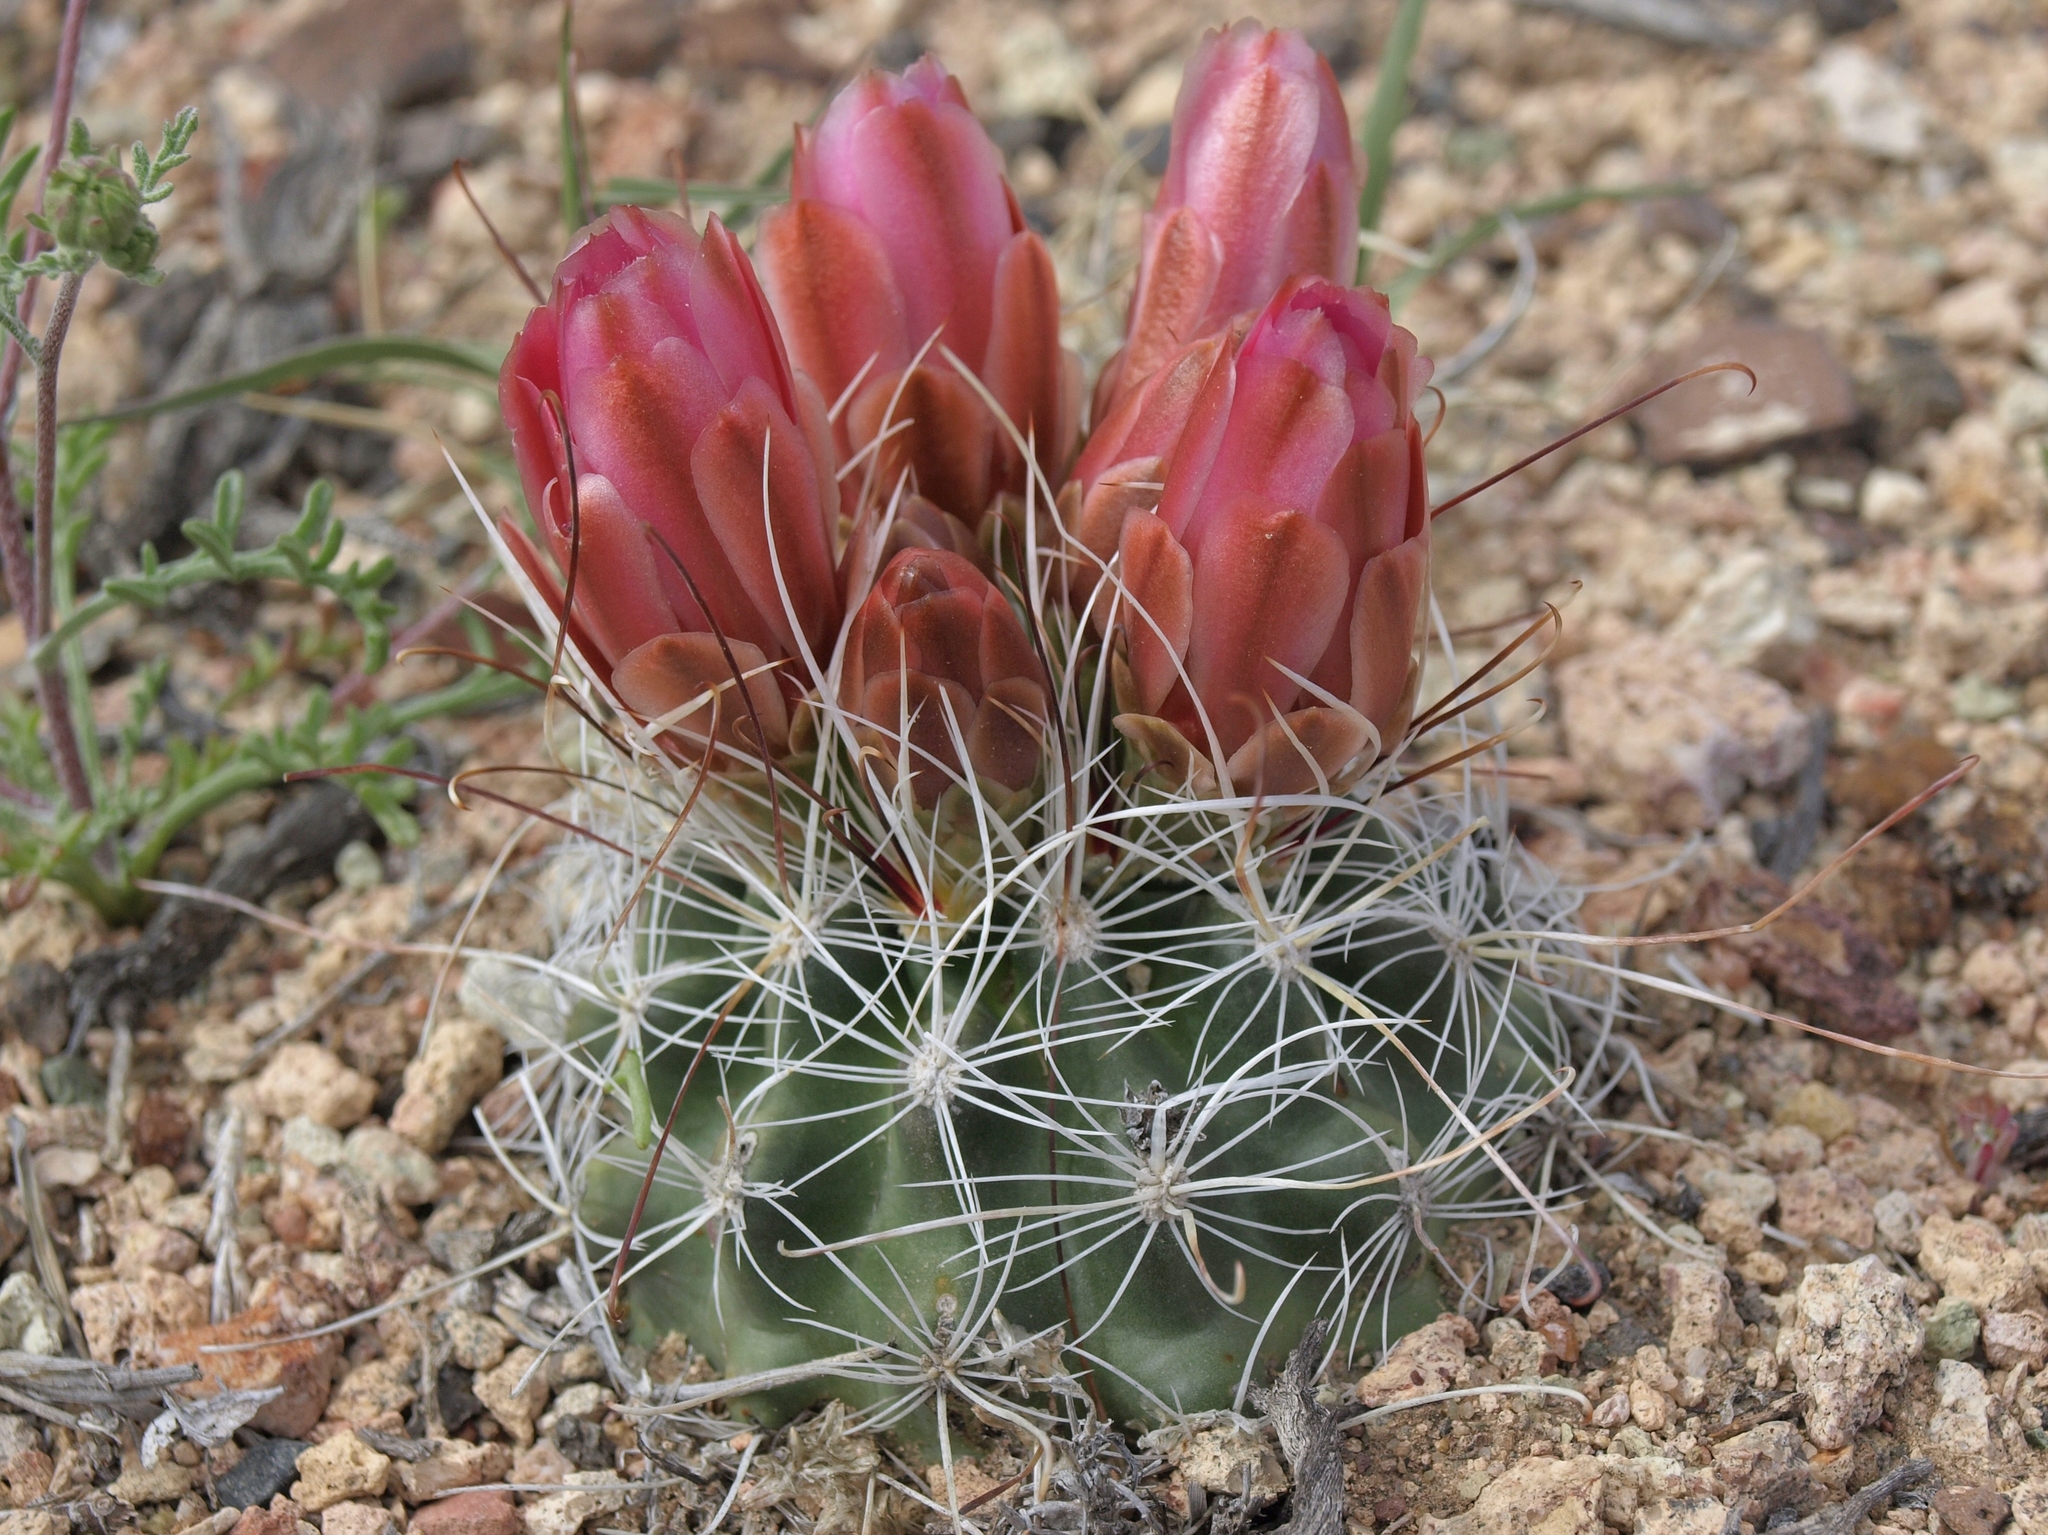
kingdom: Plantae
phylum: Tracheophyta
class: Magnoliopsida
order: Caryophyllales
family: Cactaceae
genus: Sclerocactus
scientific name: Sclerocactus nyensis
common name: Nye county fish-hook cactus
